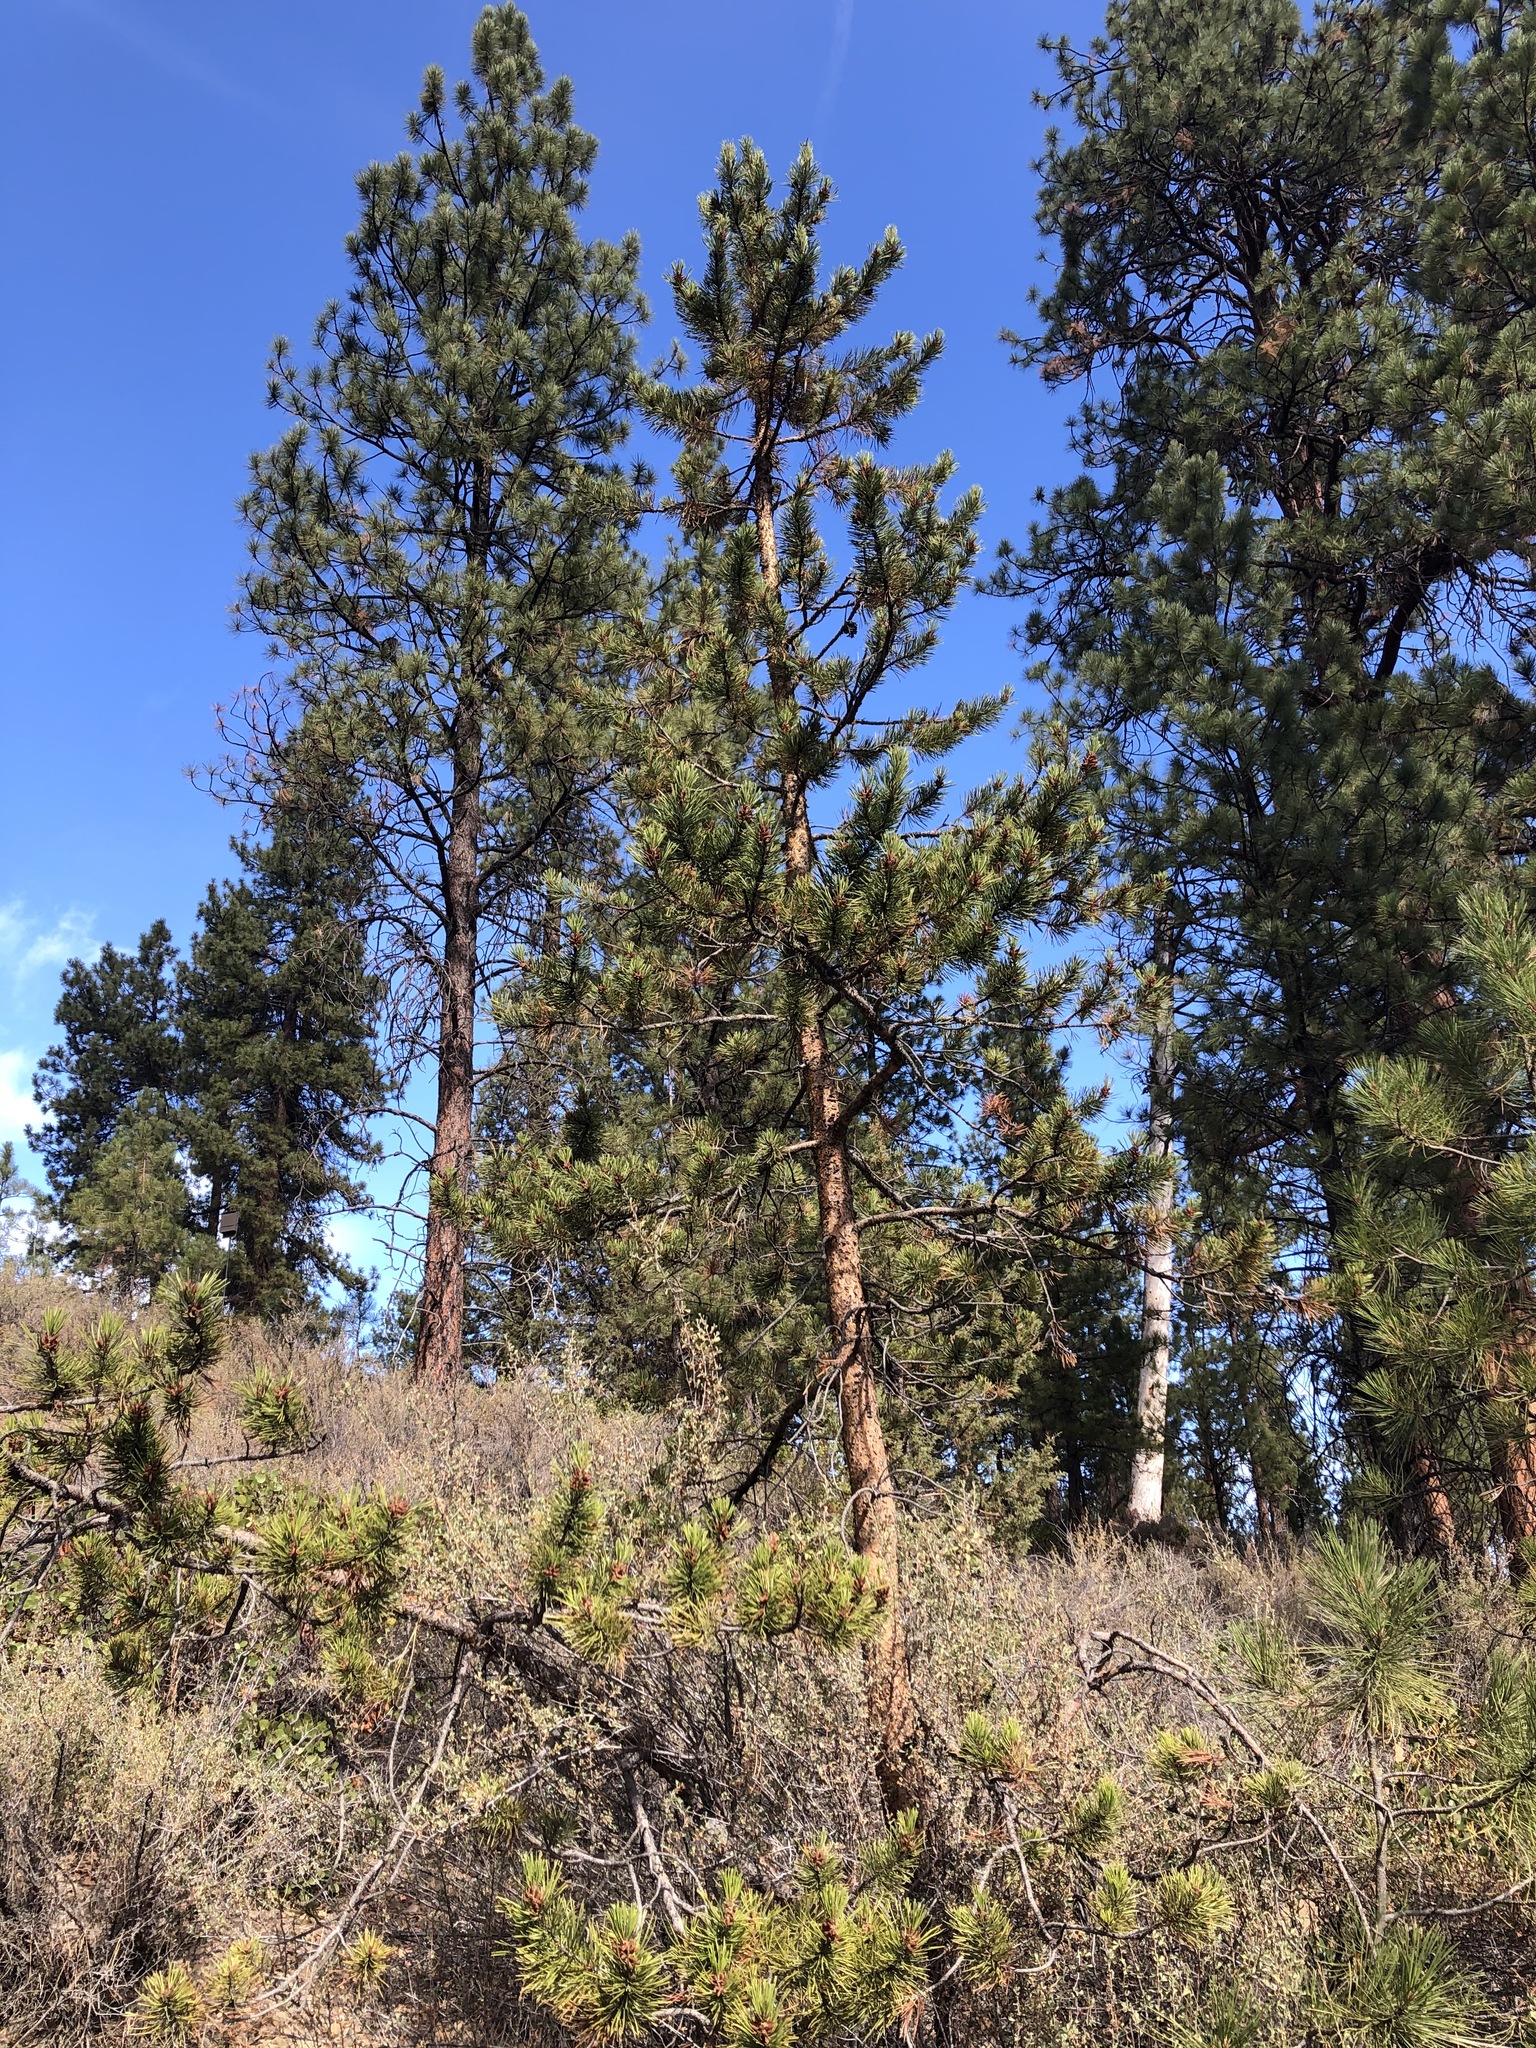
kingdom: Plantae
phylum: Tracheophyta
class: Pinopsida
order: Pinales
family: Pinaceae
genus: Pinus
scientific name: Pinus contorta
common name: Lodgepole pine
